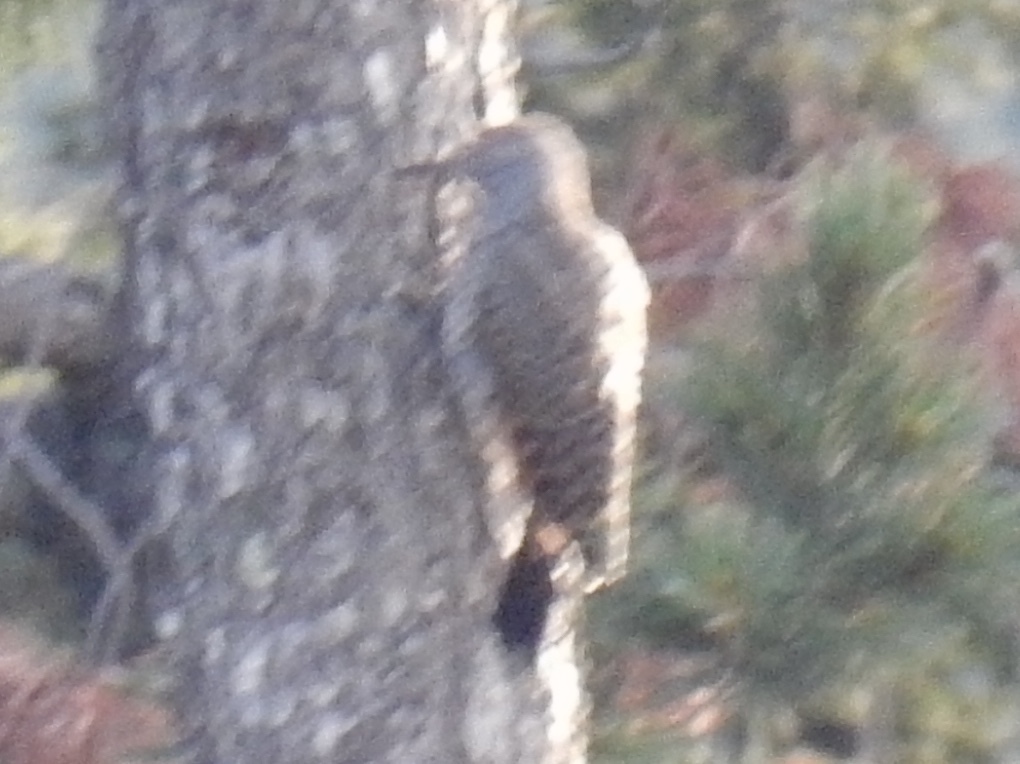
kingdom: Animalia
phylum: Chordata
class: Aves
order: Piciformes
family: Picidae
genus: Colaptes
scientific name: Colaptes auratus
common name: Northern flicker
